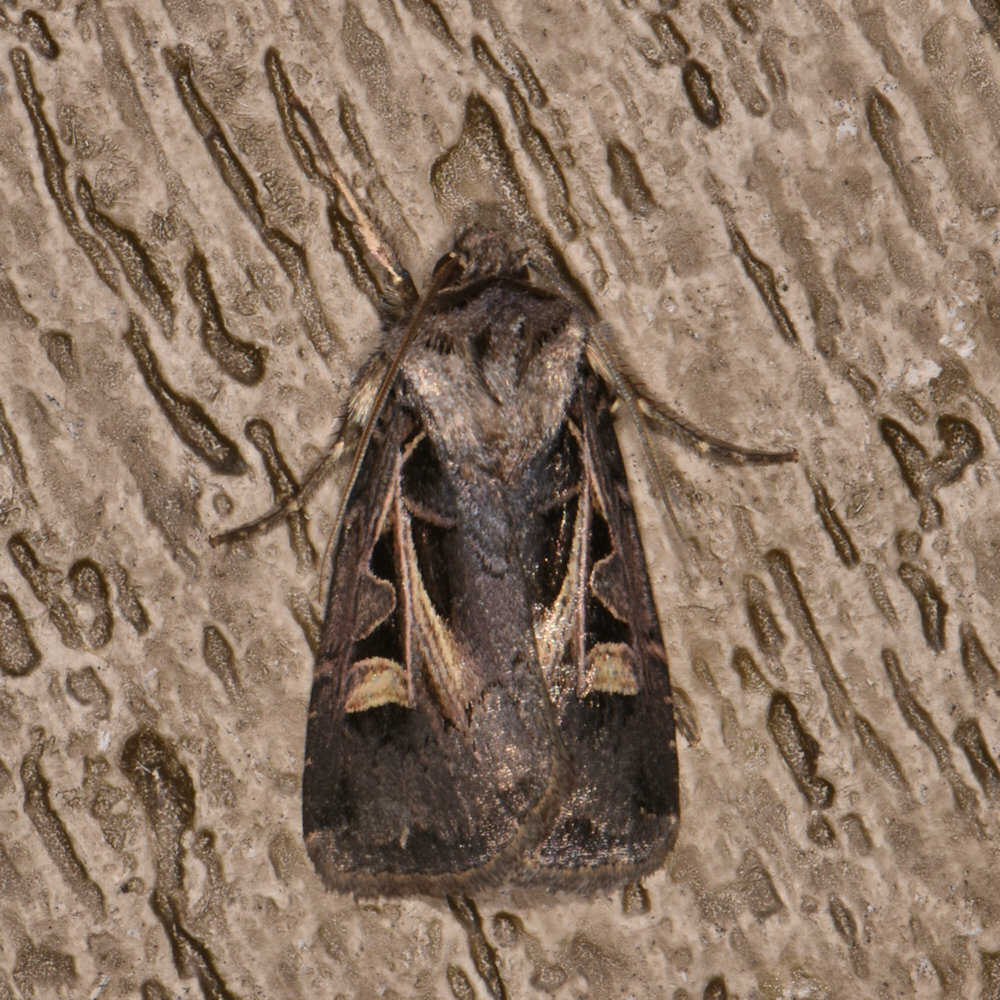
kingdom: Animalia
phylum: Arthropoda
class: Insecta
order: Lepidoptera
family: Noctuidae
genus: Feltia
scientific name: Feltia herilis
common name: Master's dart
